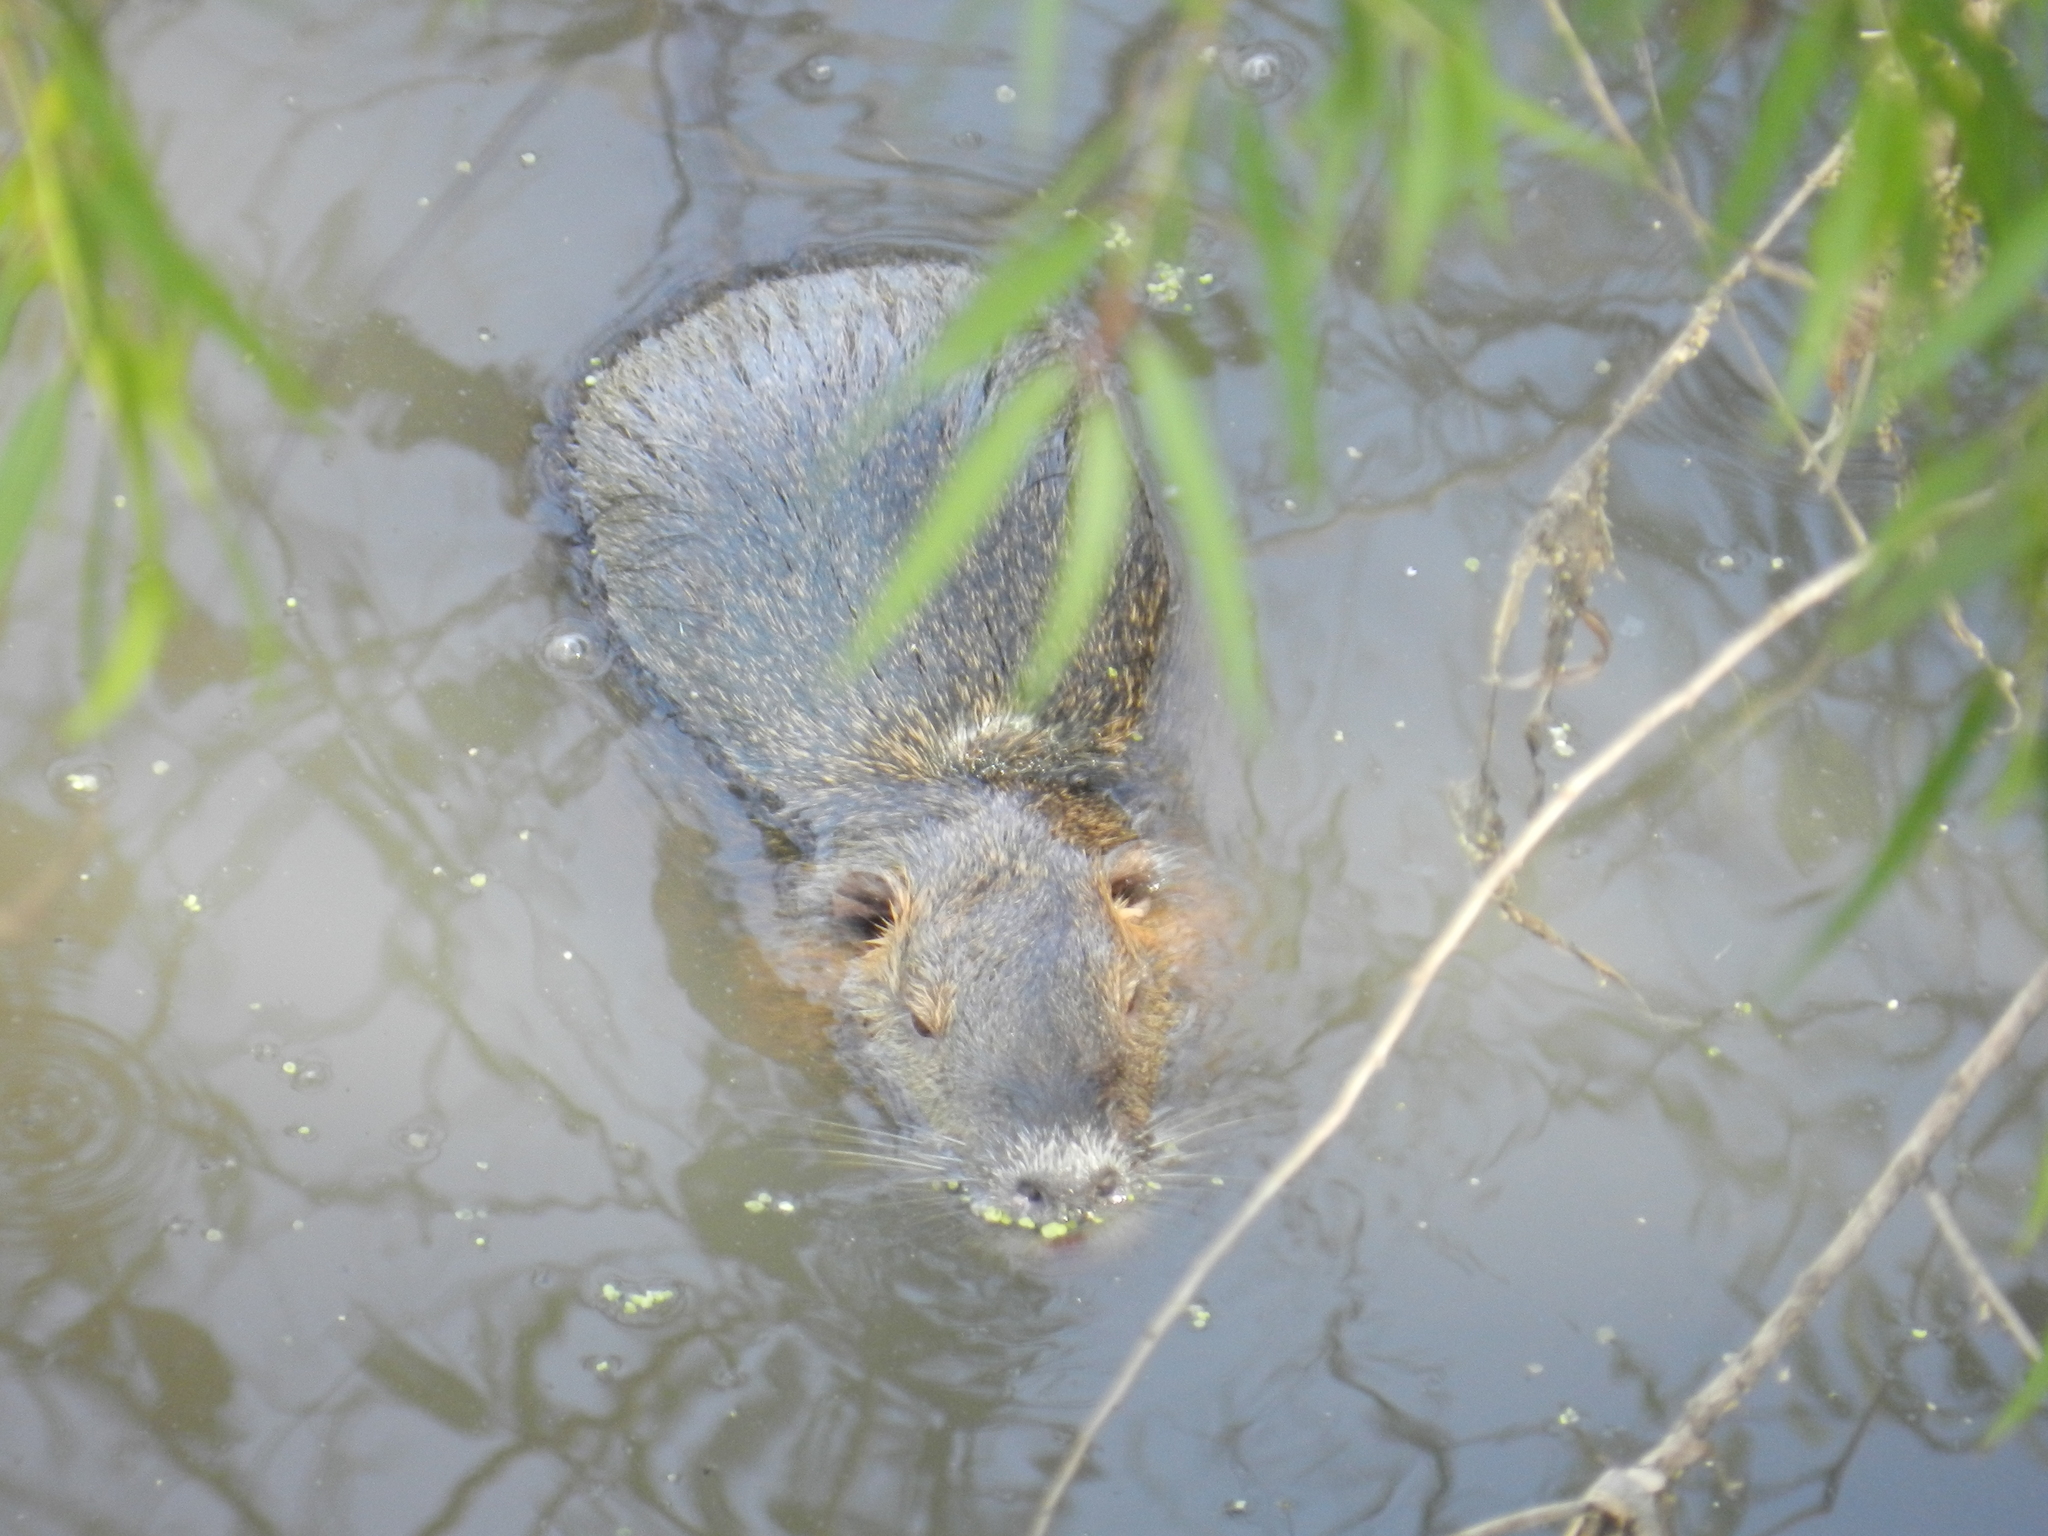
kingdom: Animalia
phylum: Chordata
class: Mammalia
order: Rodentia
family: Myocastoridae
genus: Myocastor
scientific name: Myocastor coypus
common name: Coypu
